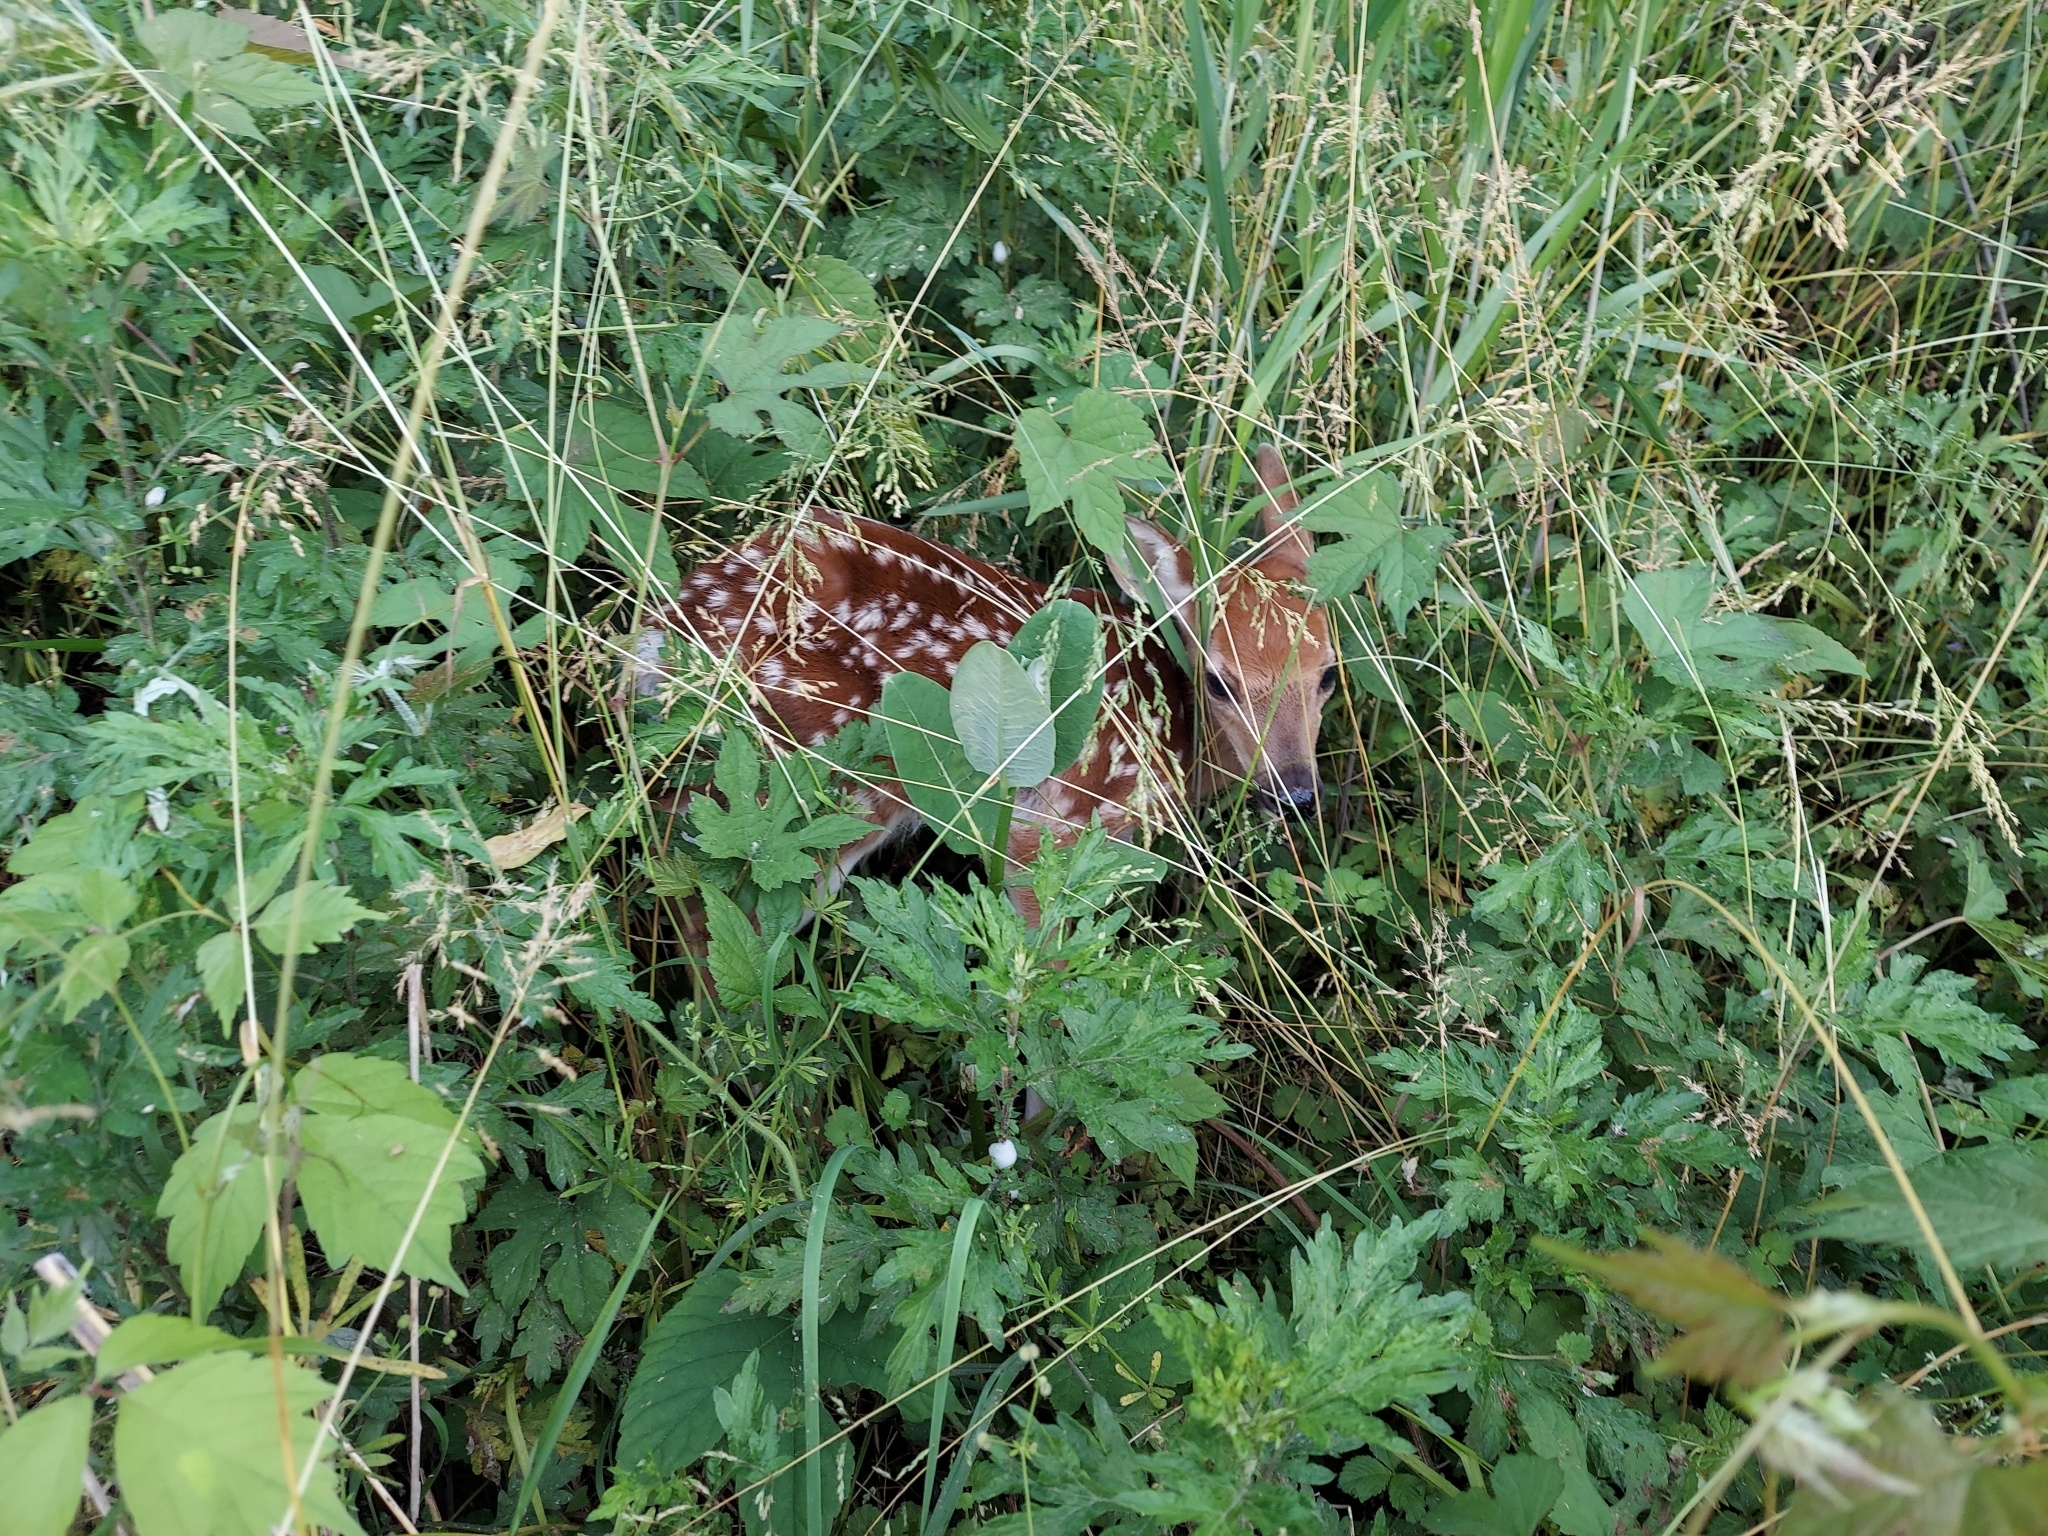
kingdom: Animalia
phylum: Chordata
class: Mammalia
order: Artiodactyla
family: Cervidae
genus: Odocoileus
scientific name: Odocoileus virginianus
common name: White-tailed deer
